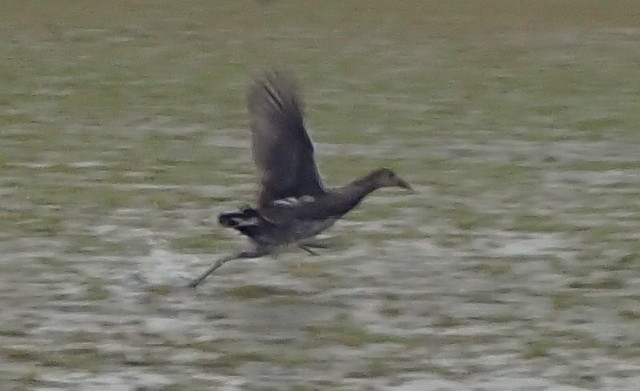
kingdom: Animalia
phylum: Chordata
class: Aves
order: Gruiformes
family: Rallidae
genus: Gallinula
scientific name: Gallinula chloropus
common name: Common moorhen
